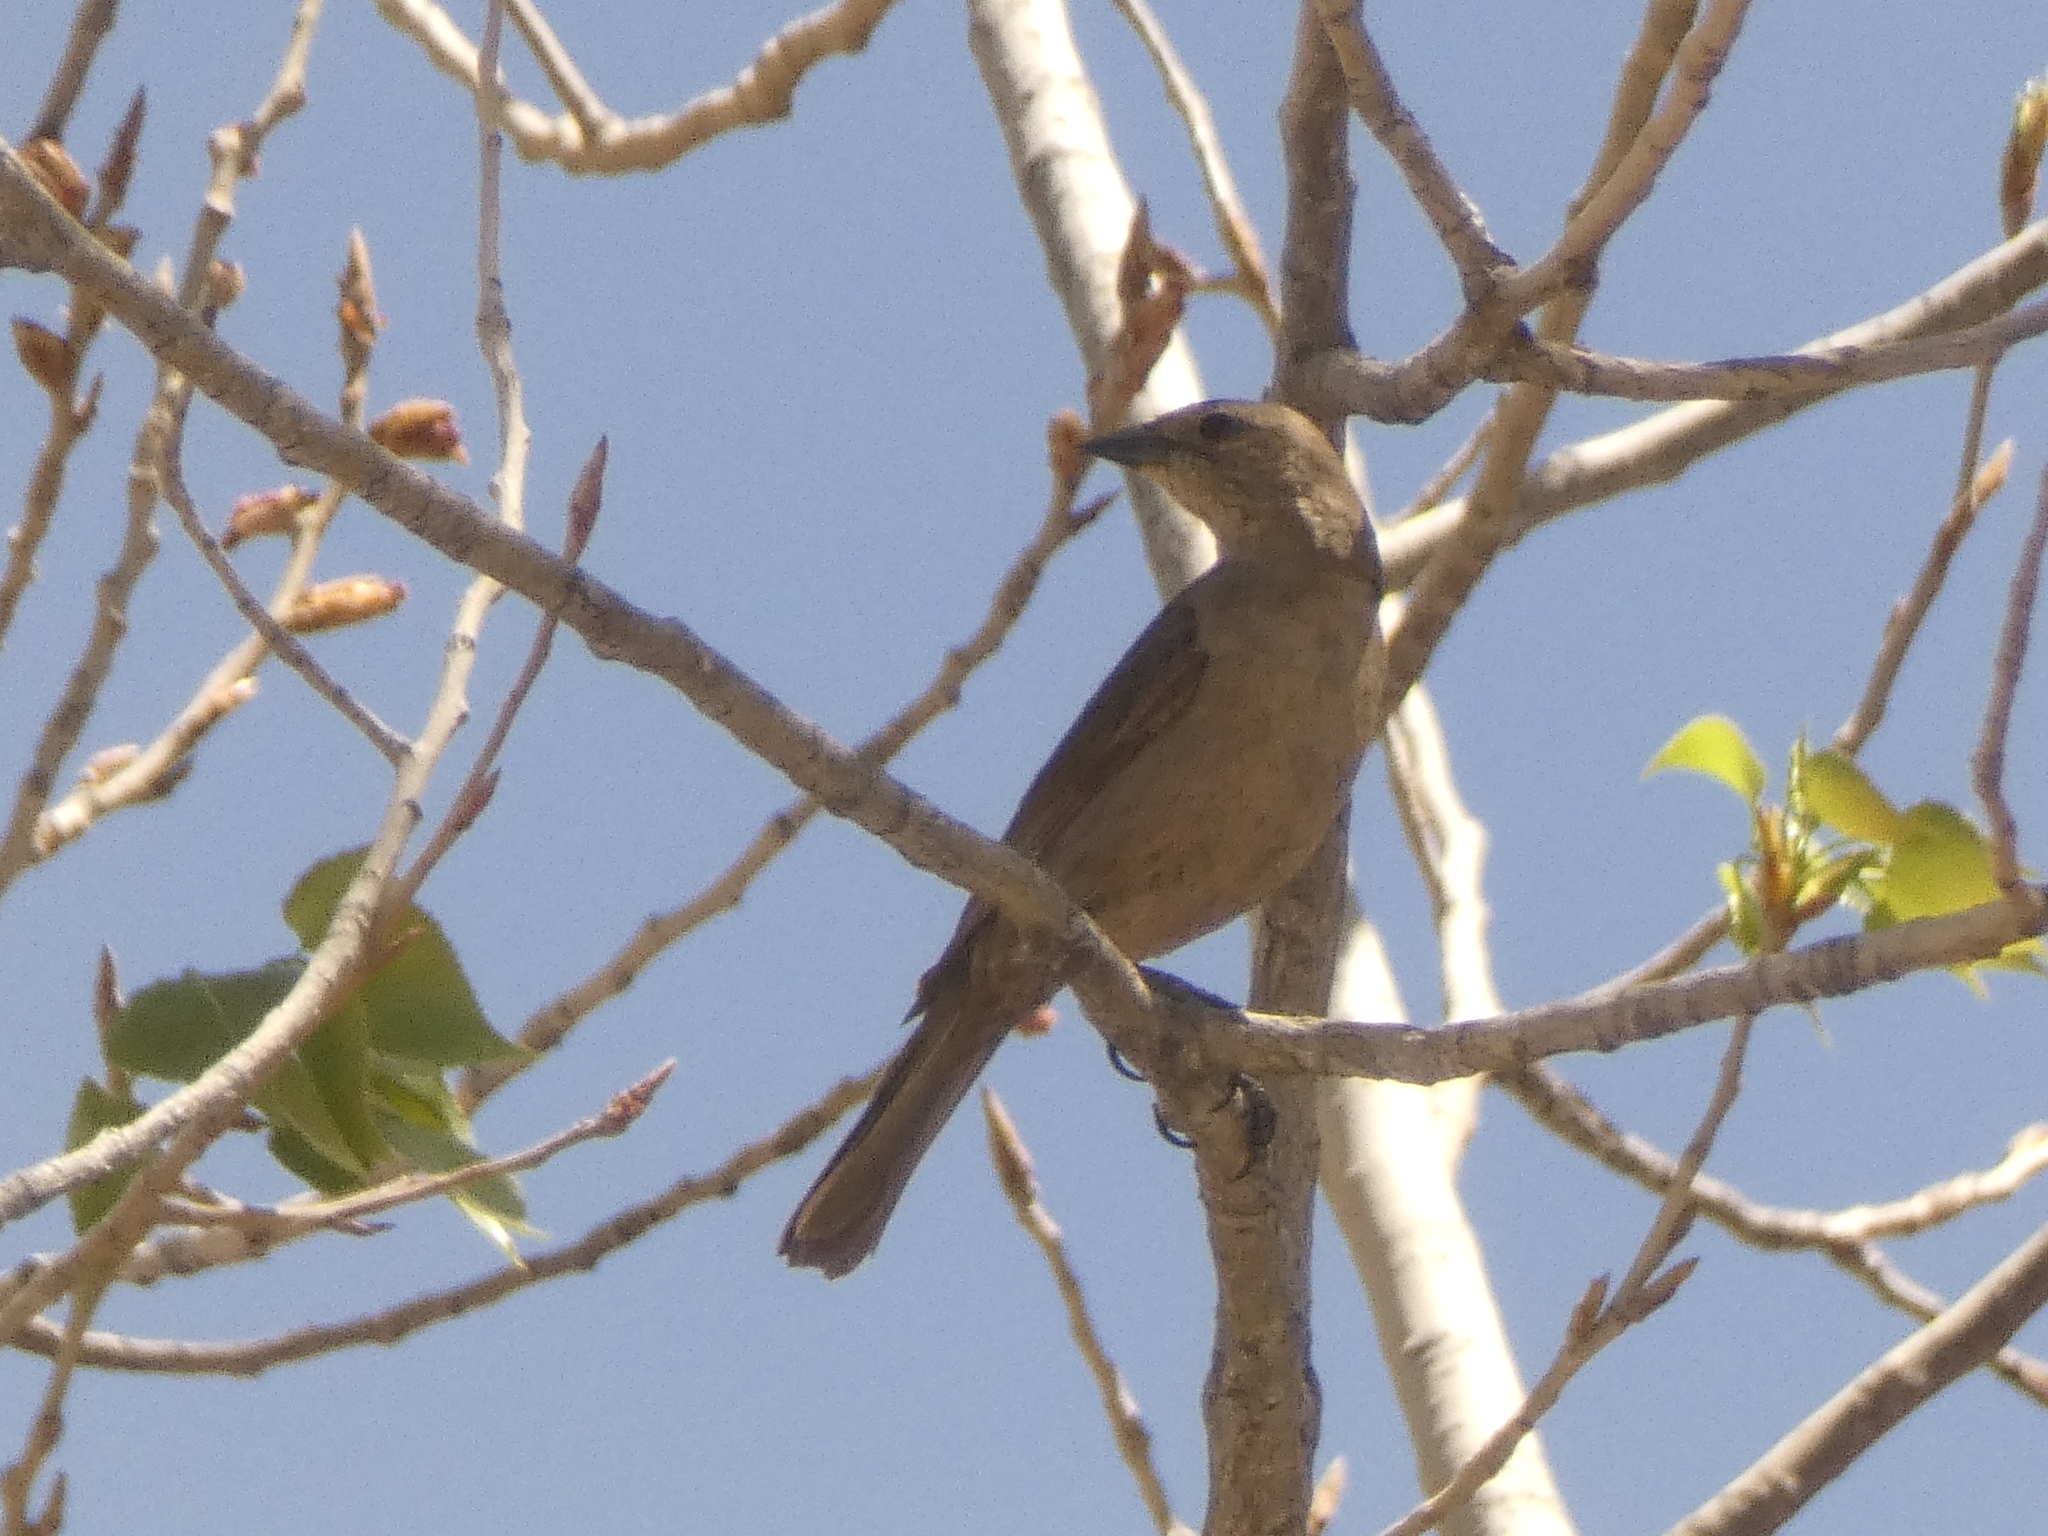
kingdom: Animalia
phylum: Chordata
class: Aves
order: Passeriformes
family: Icteridae
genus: Molothrus
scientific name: Molothrus bonariensis
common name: Shiny cowbird
